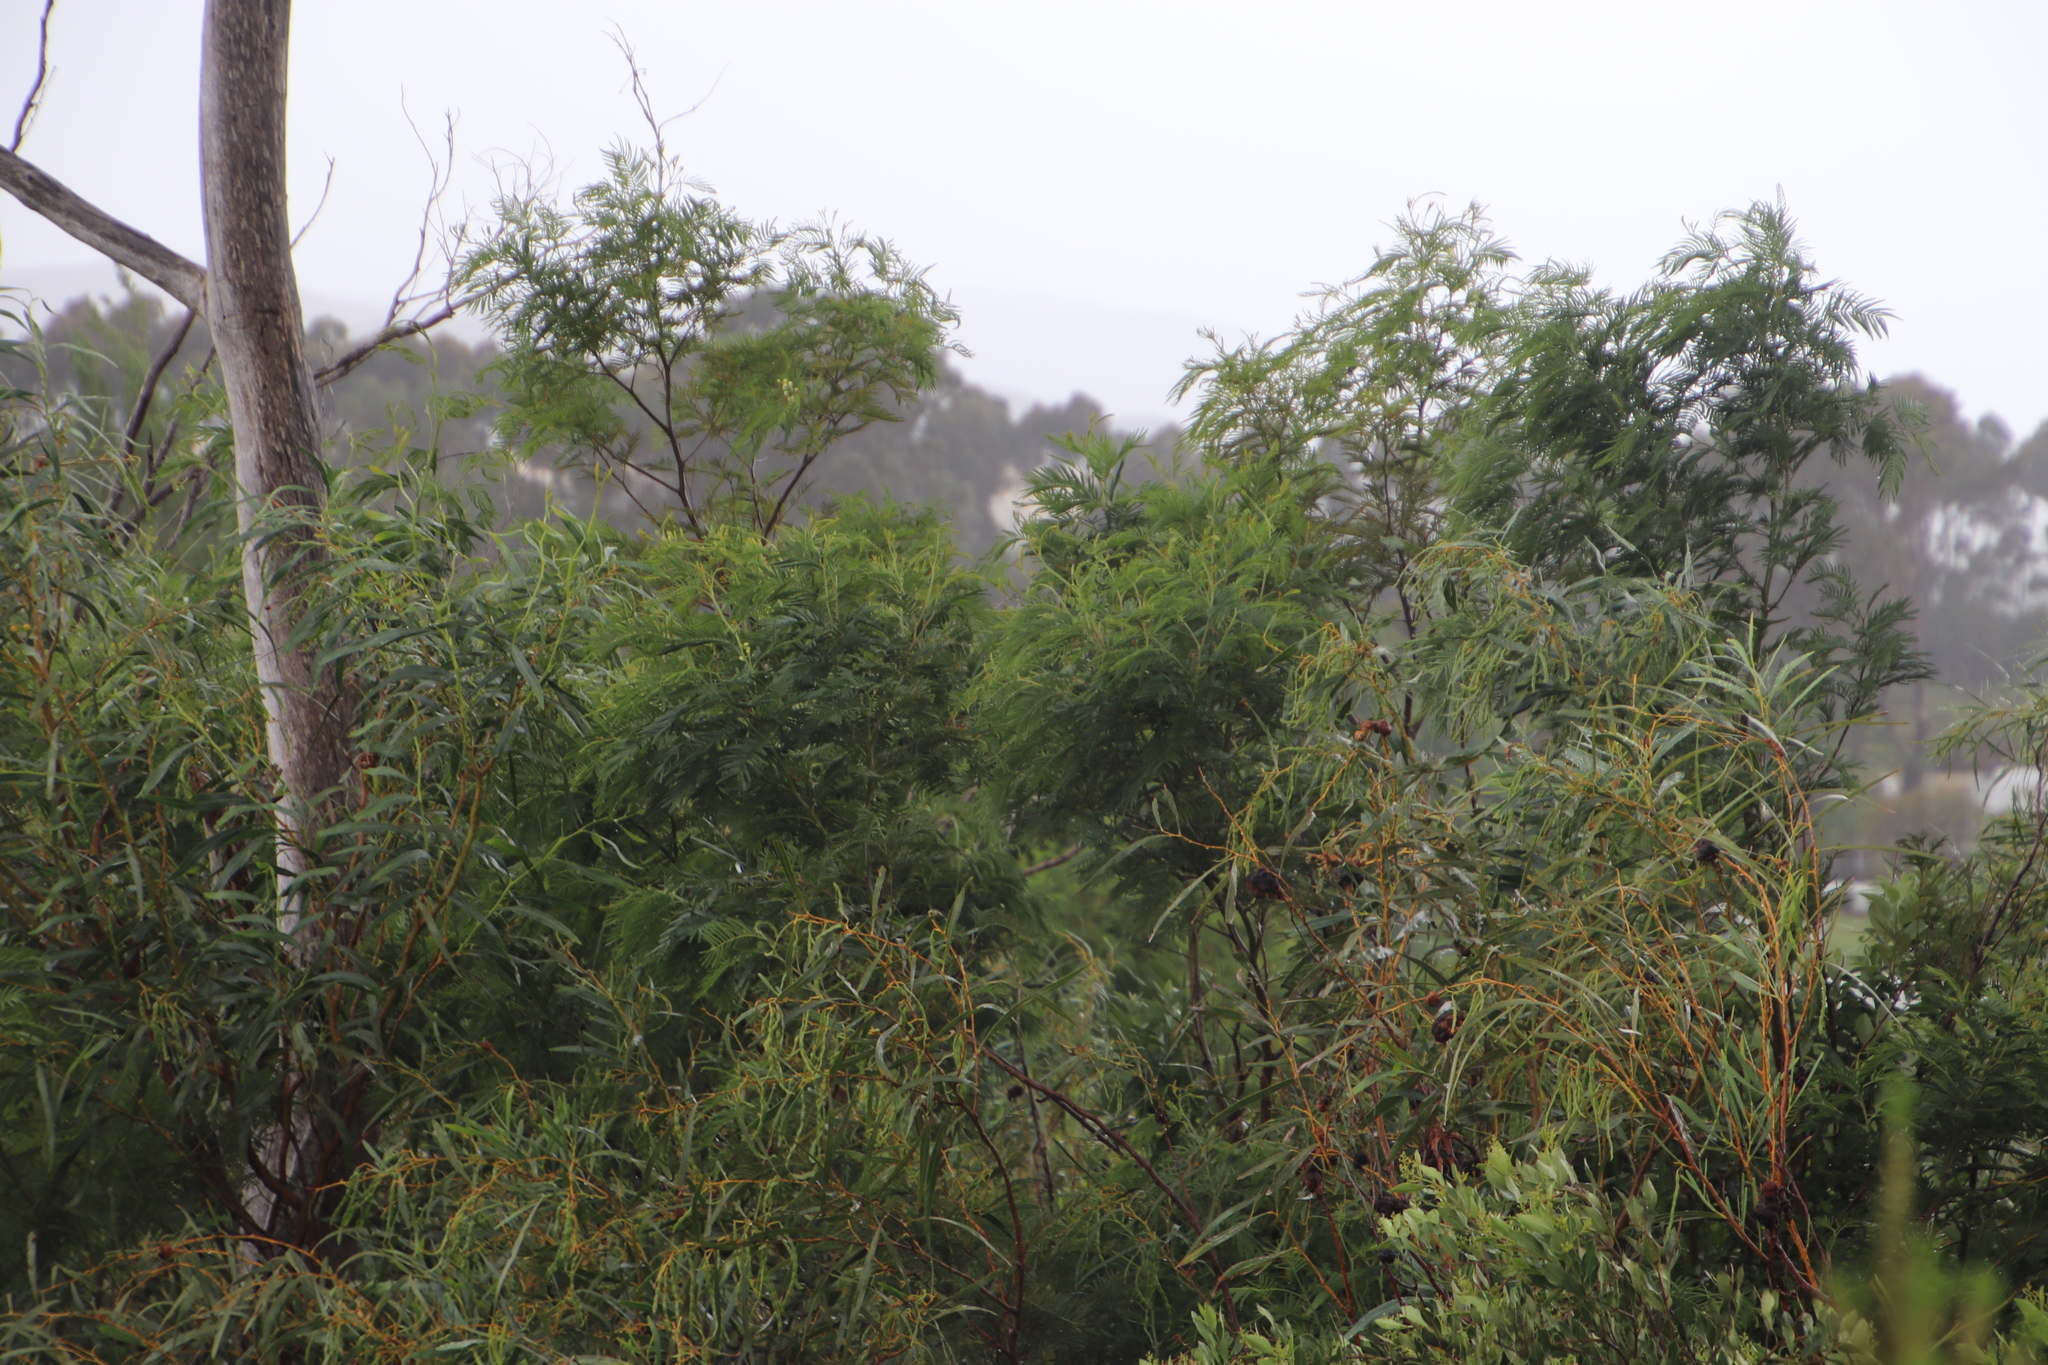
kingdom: Plantae
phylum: Tracheophyta
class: Magnoliopsida
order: Fabales
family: Fabaceae
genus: Acacia
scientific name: Acacia saligna
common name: Orange wattle
